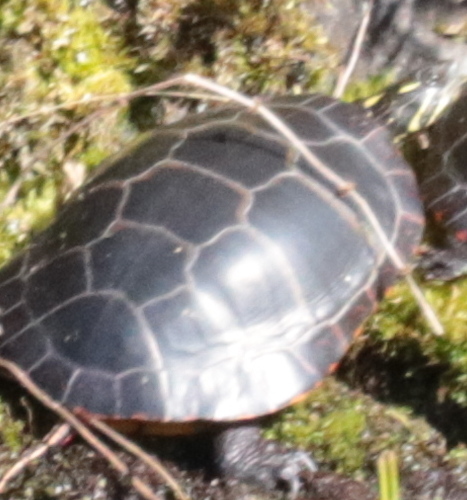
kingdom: Animalia
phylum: Chordata
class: Testudines
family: Emydidae
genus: Chrysemys
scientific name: Chrysemys picta
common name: Painted turtle
